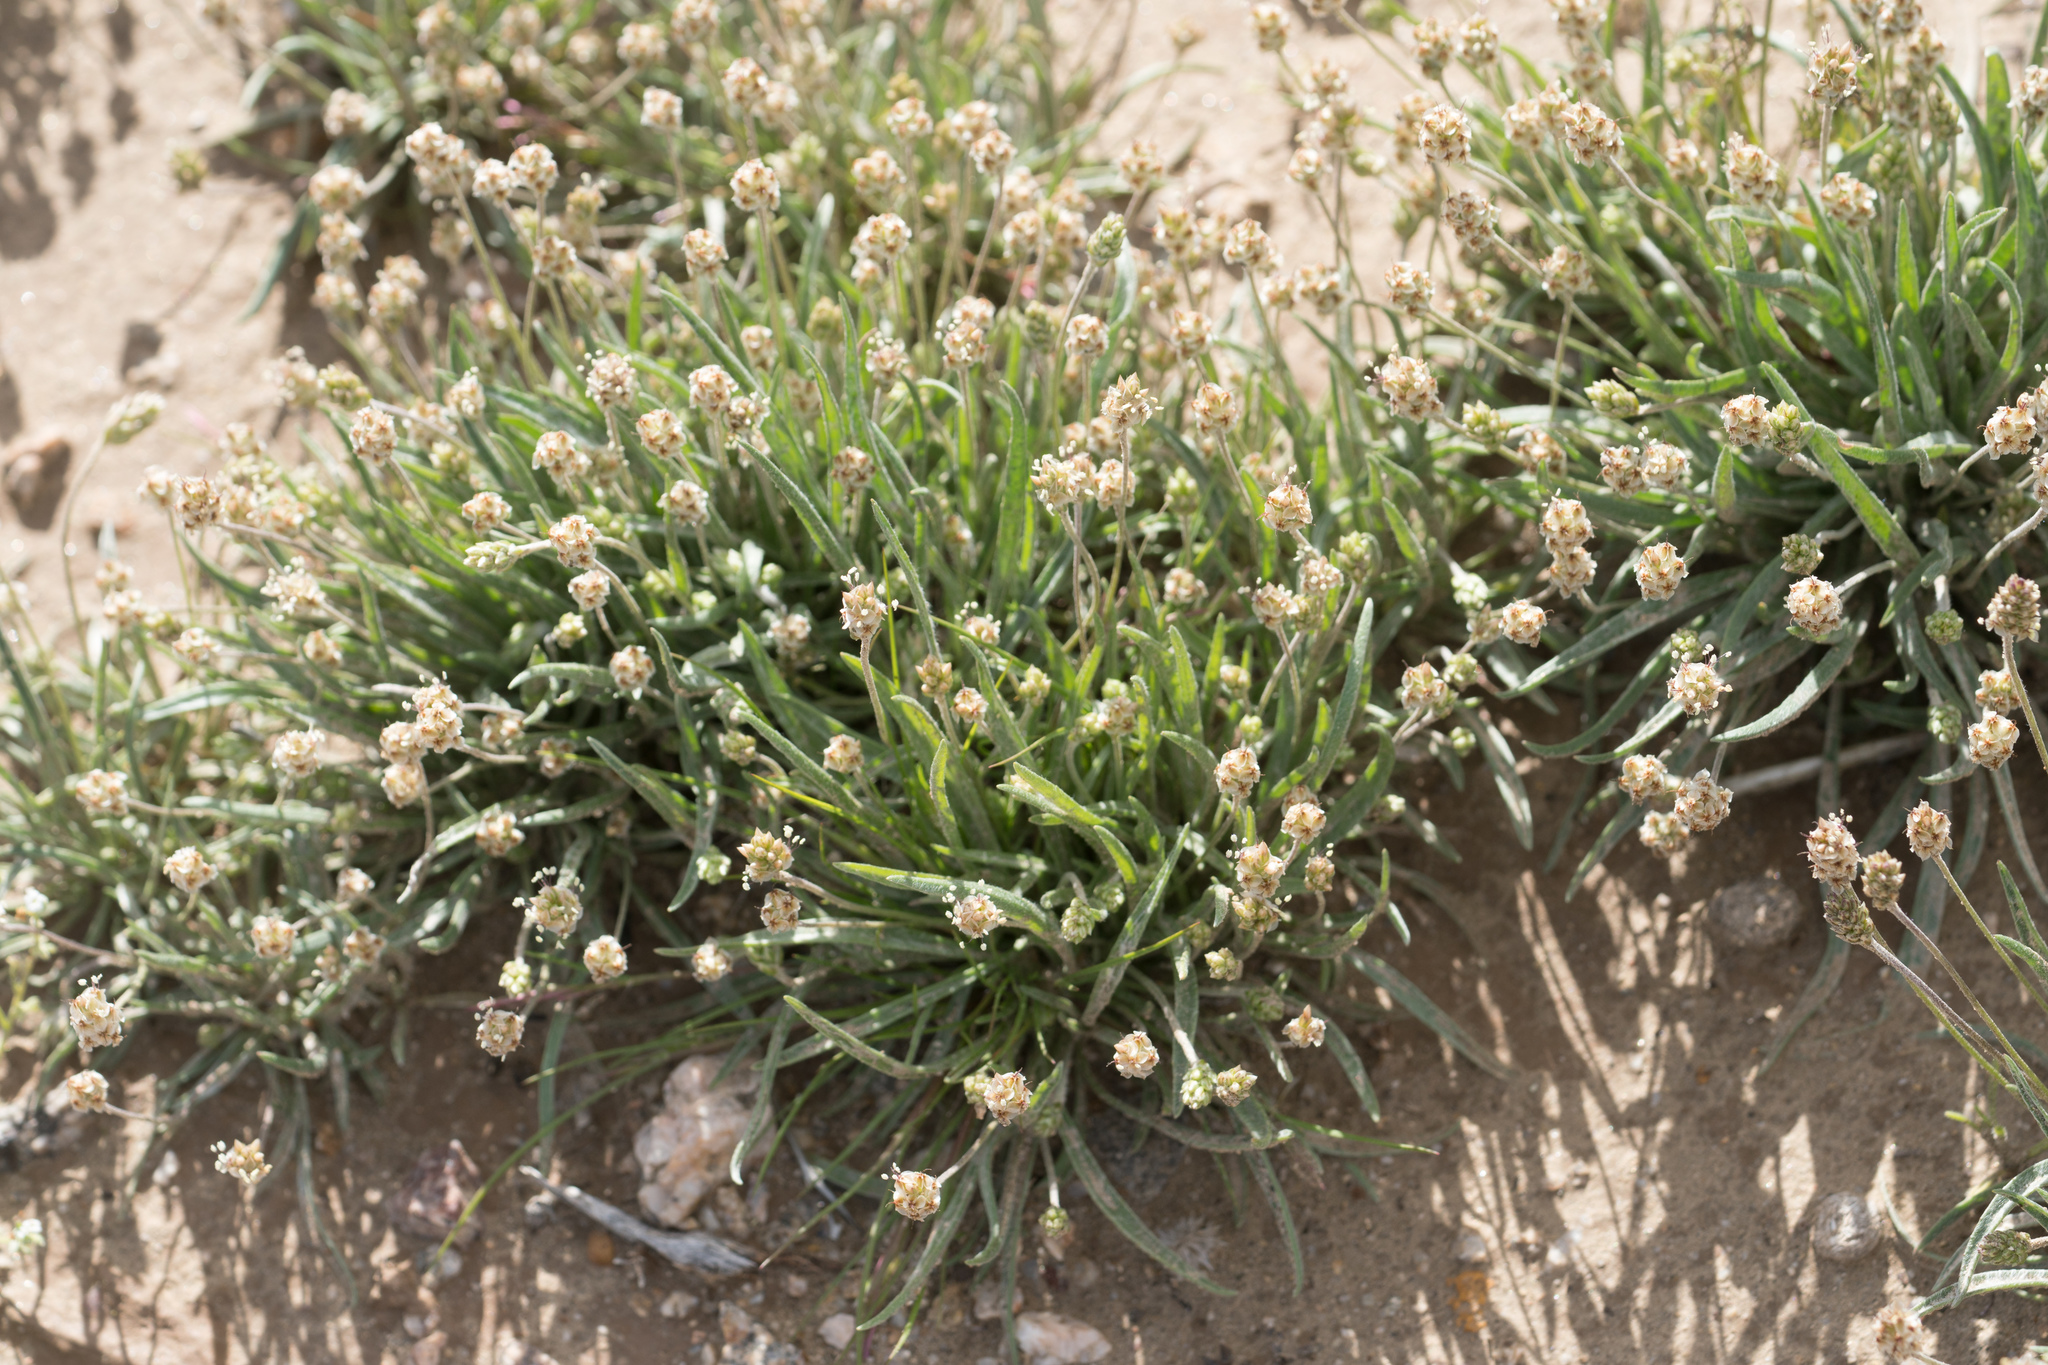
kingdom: Plantae
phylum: Tracheophyta
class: Magnoliopsida
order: Lamiales
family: Plantaginaceae
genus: Plantago
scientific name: Plantago ovata
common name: Blond plantain
